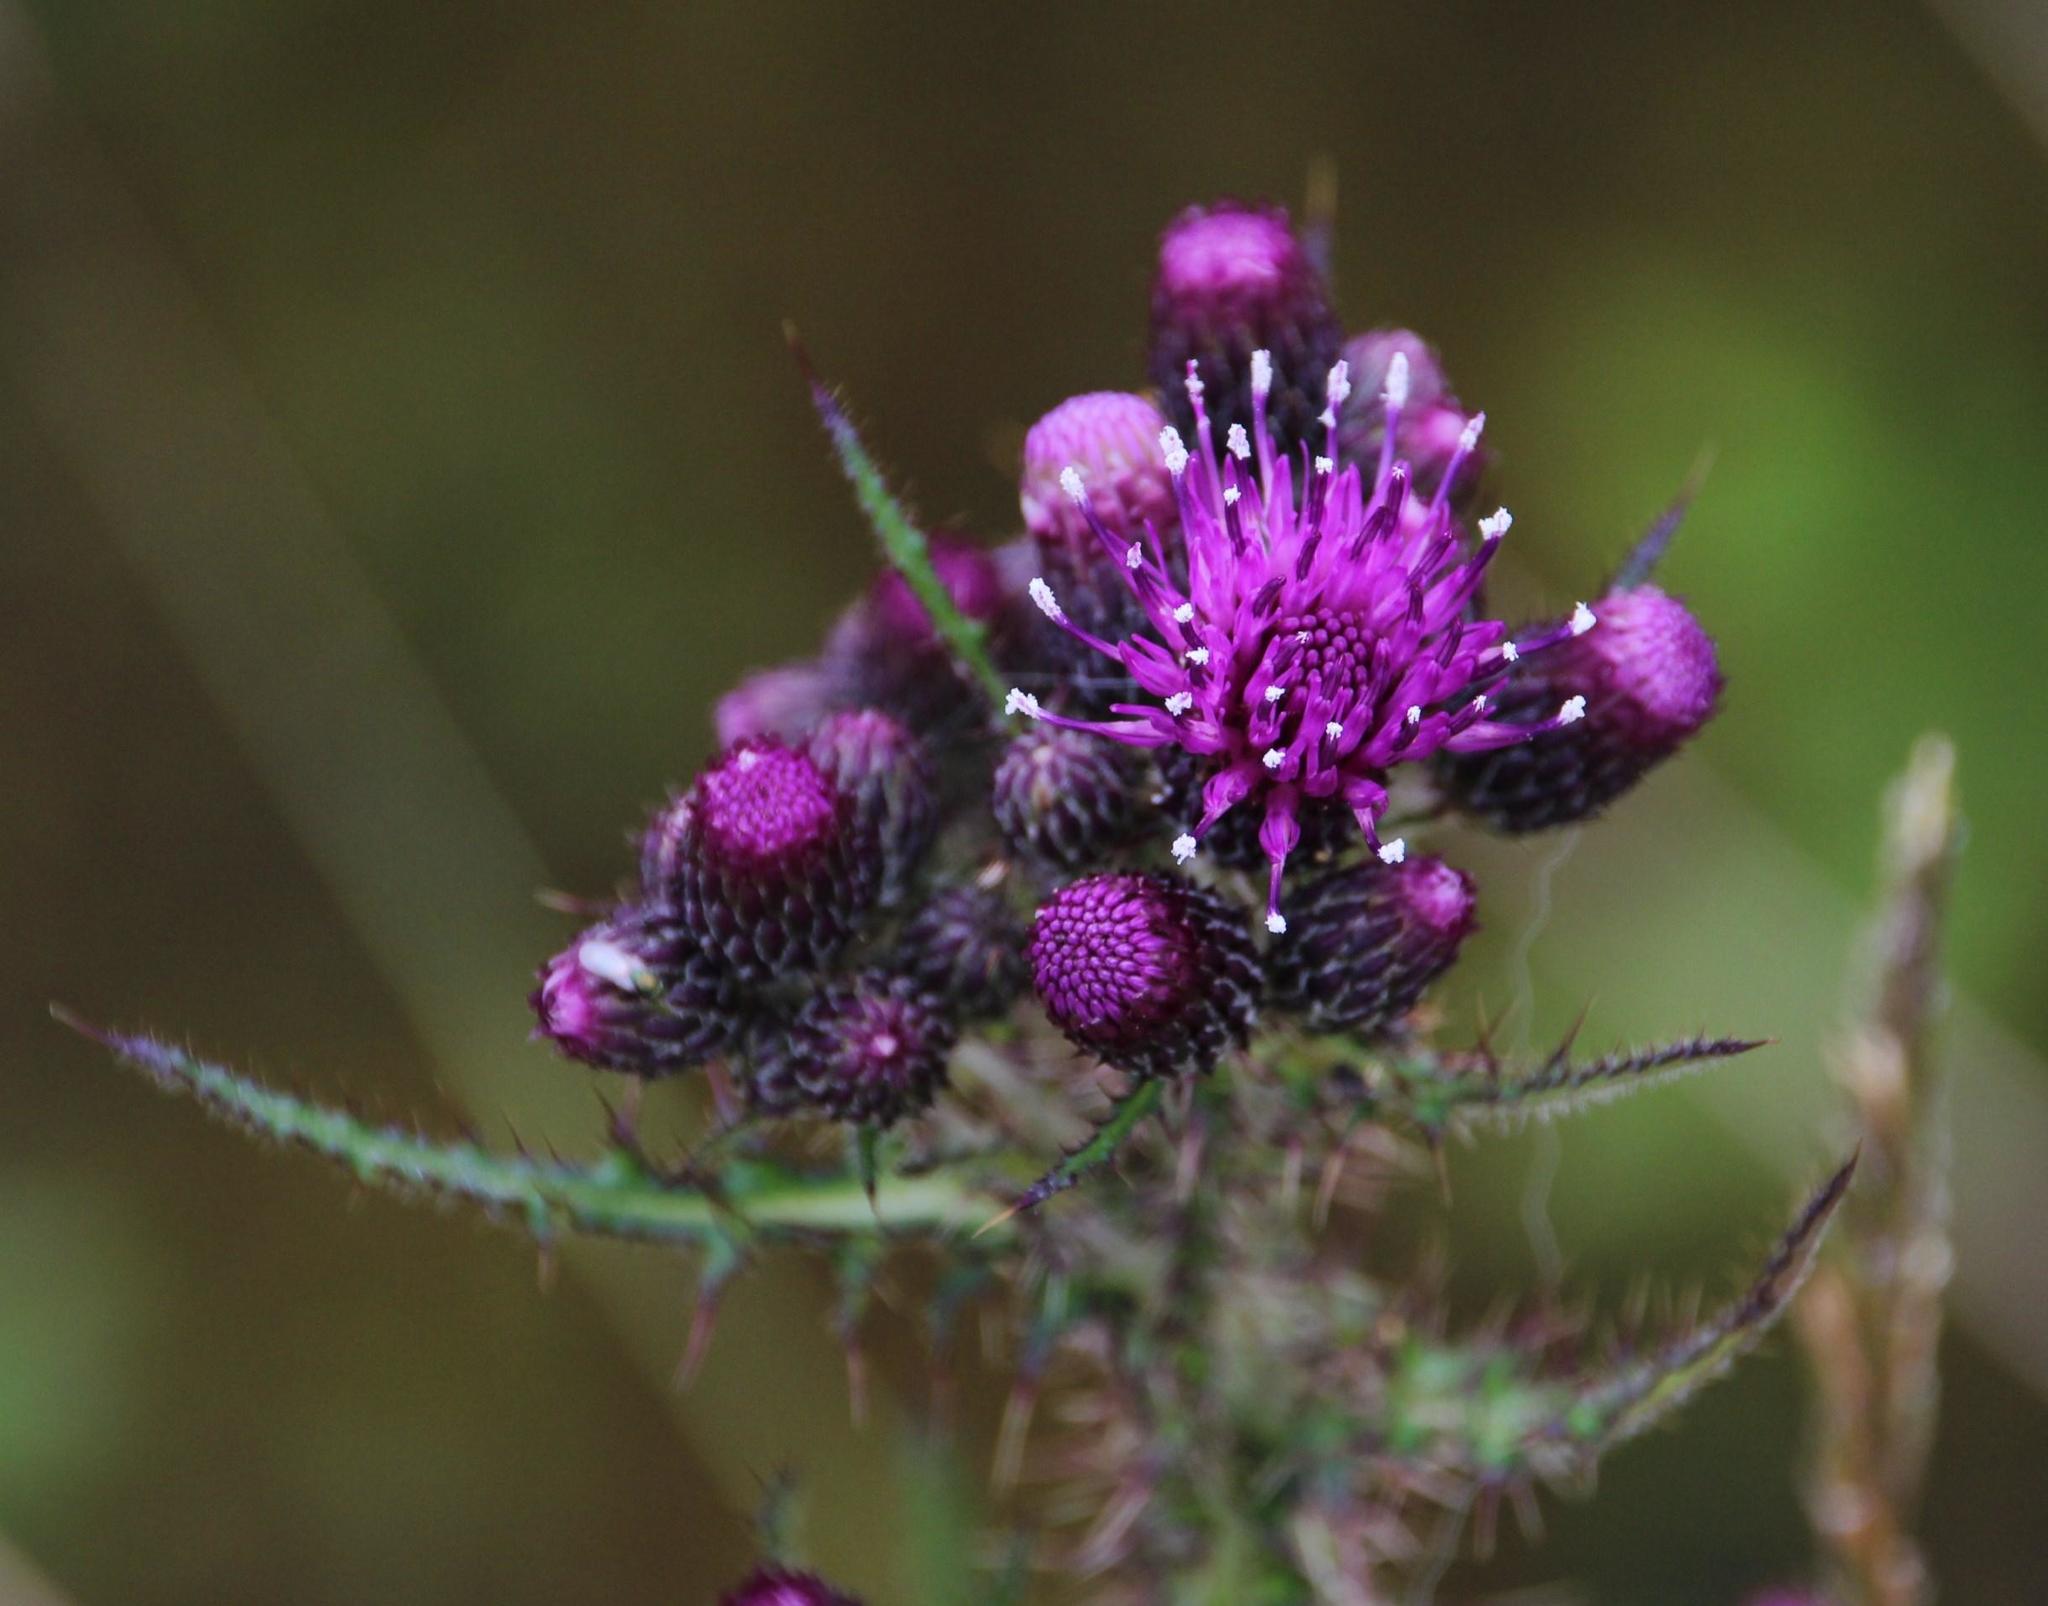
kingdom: Plantae
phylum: Tracheophyta
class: Magnoliopsida
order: Asterales
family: Asteraceae
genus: Cirsium
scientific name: Cirsium palustre
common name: Marsh thistle
